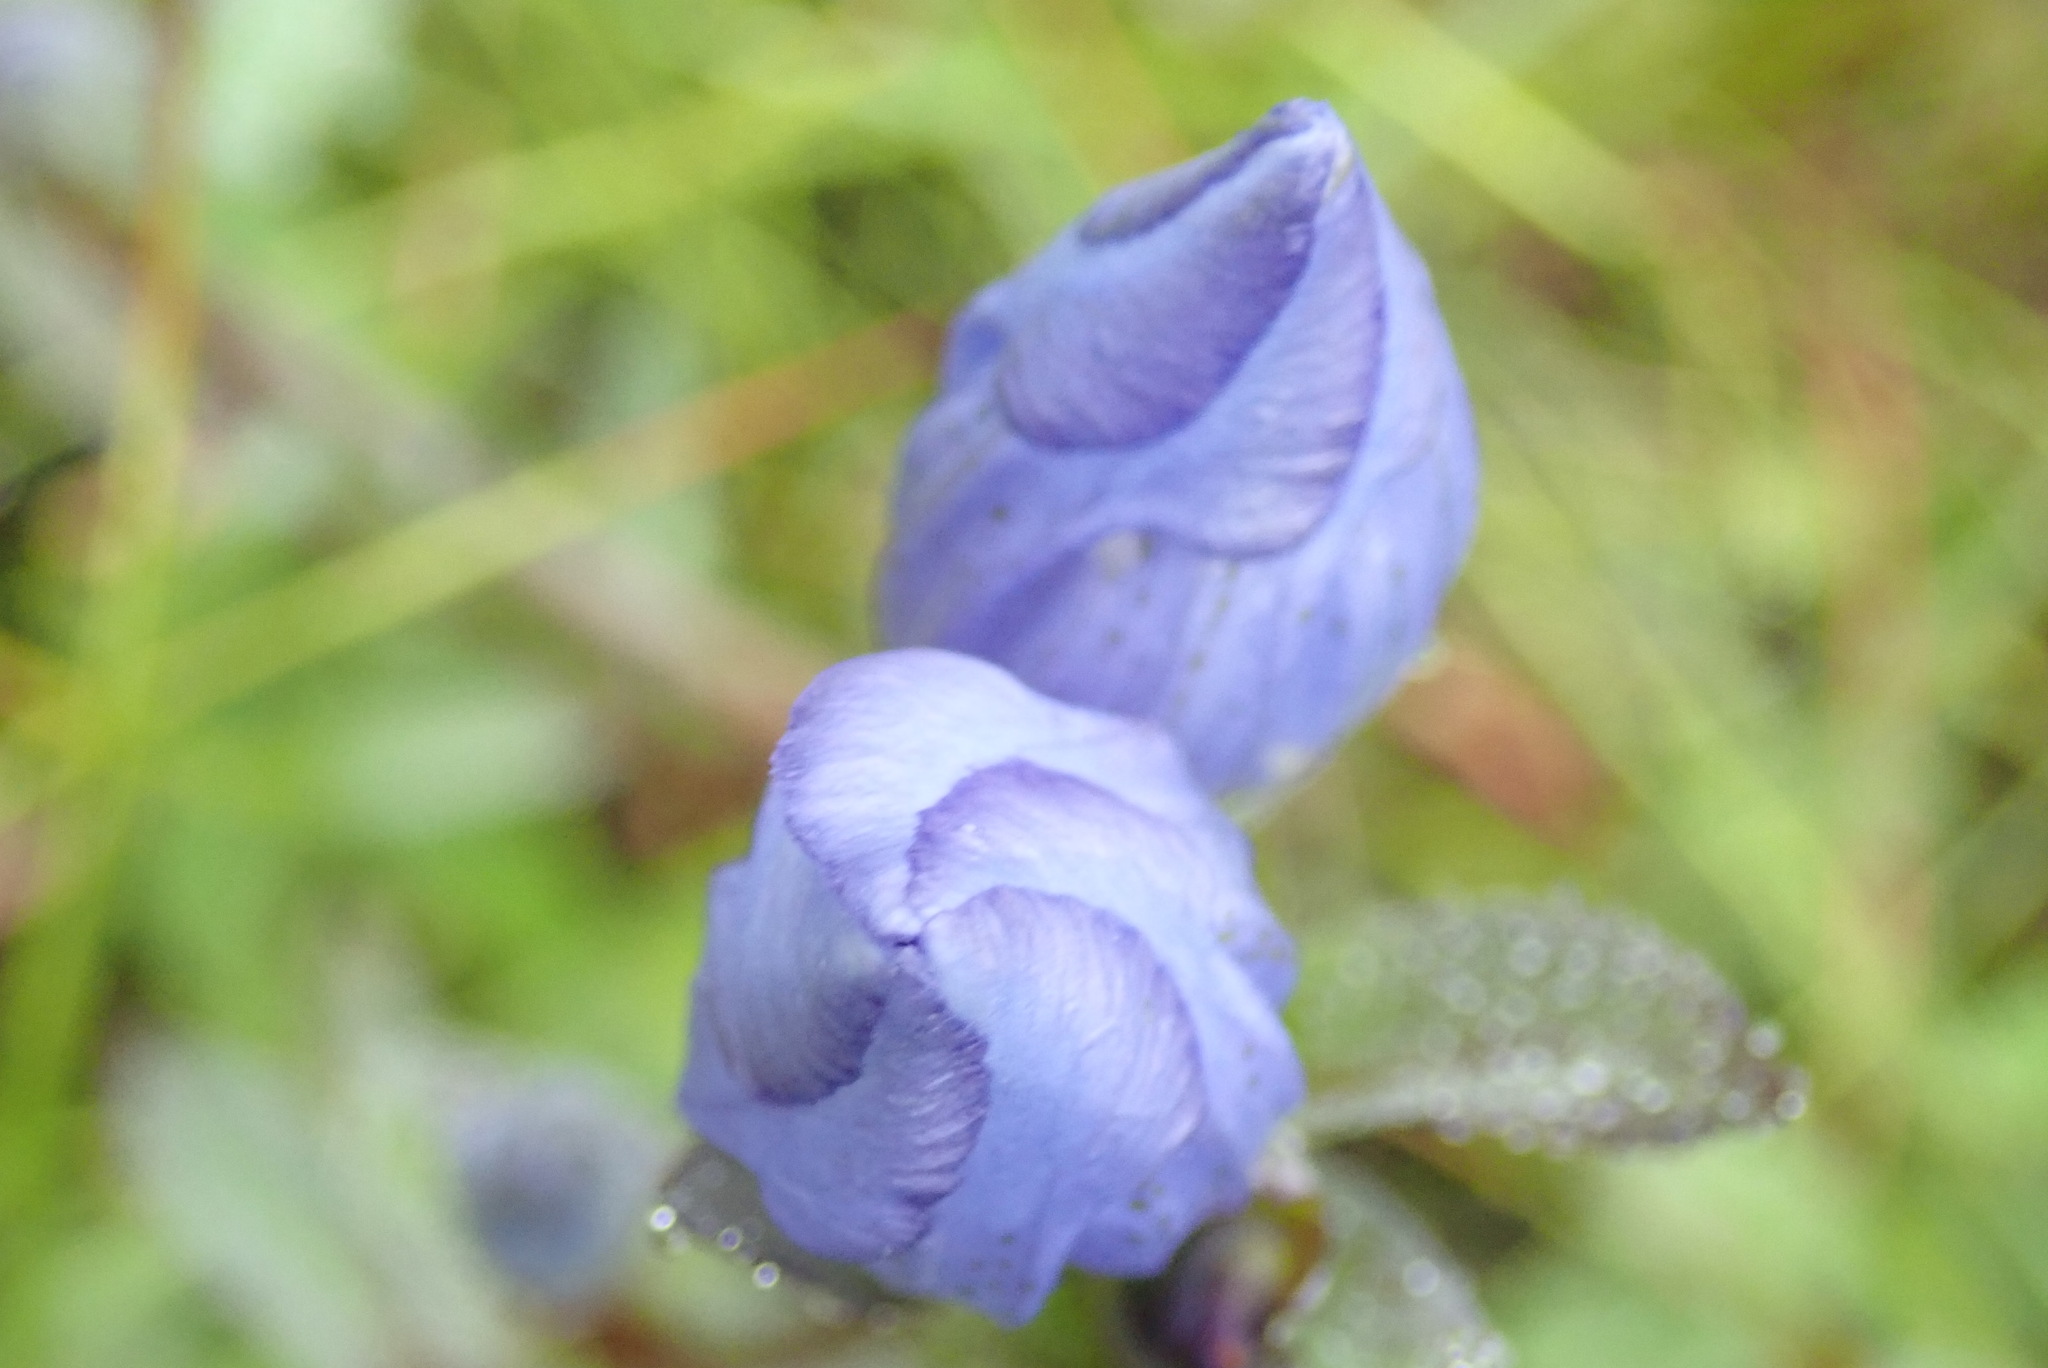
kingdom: Plantae
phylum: Tracheophyta
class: Magnoliopsida
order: Gentianales
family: Gentianaceae
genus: Gentiana
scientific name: Gentiana sceptrum
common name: Pacific gentian
